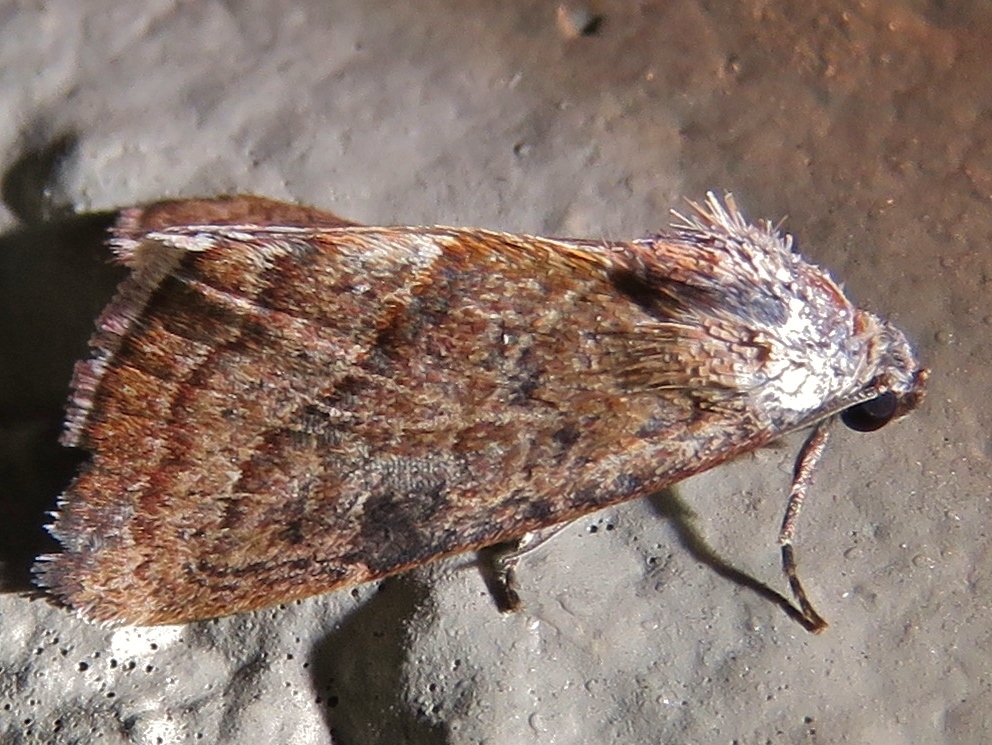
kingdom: Animalia
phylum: Arthropoda
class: Insecta
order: Lepidoptera
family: Noctuidae
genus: Galgula
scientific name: Galgula partita
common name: Wedgeling
